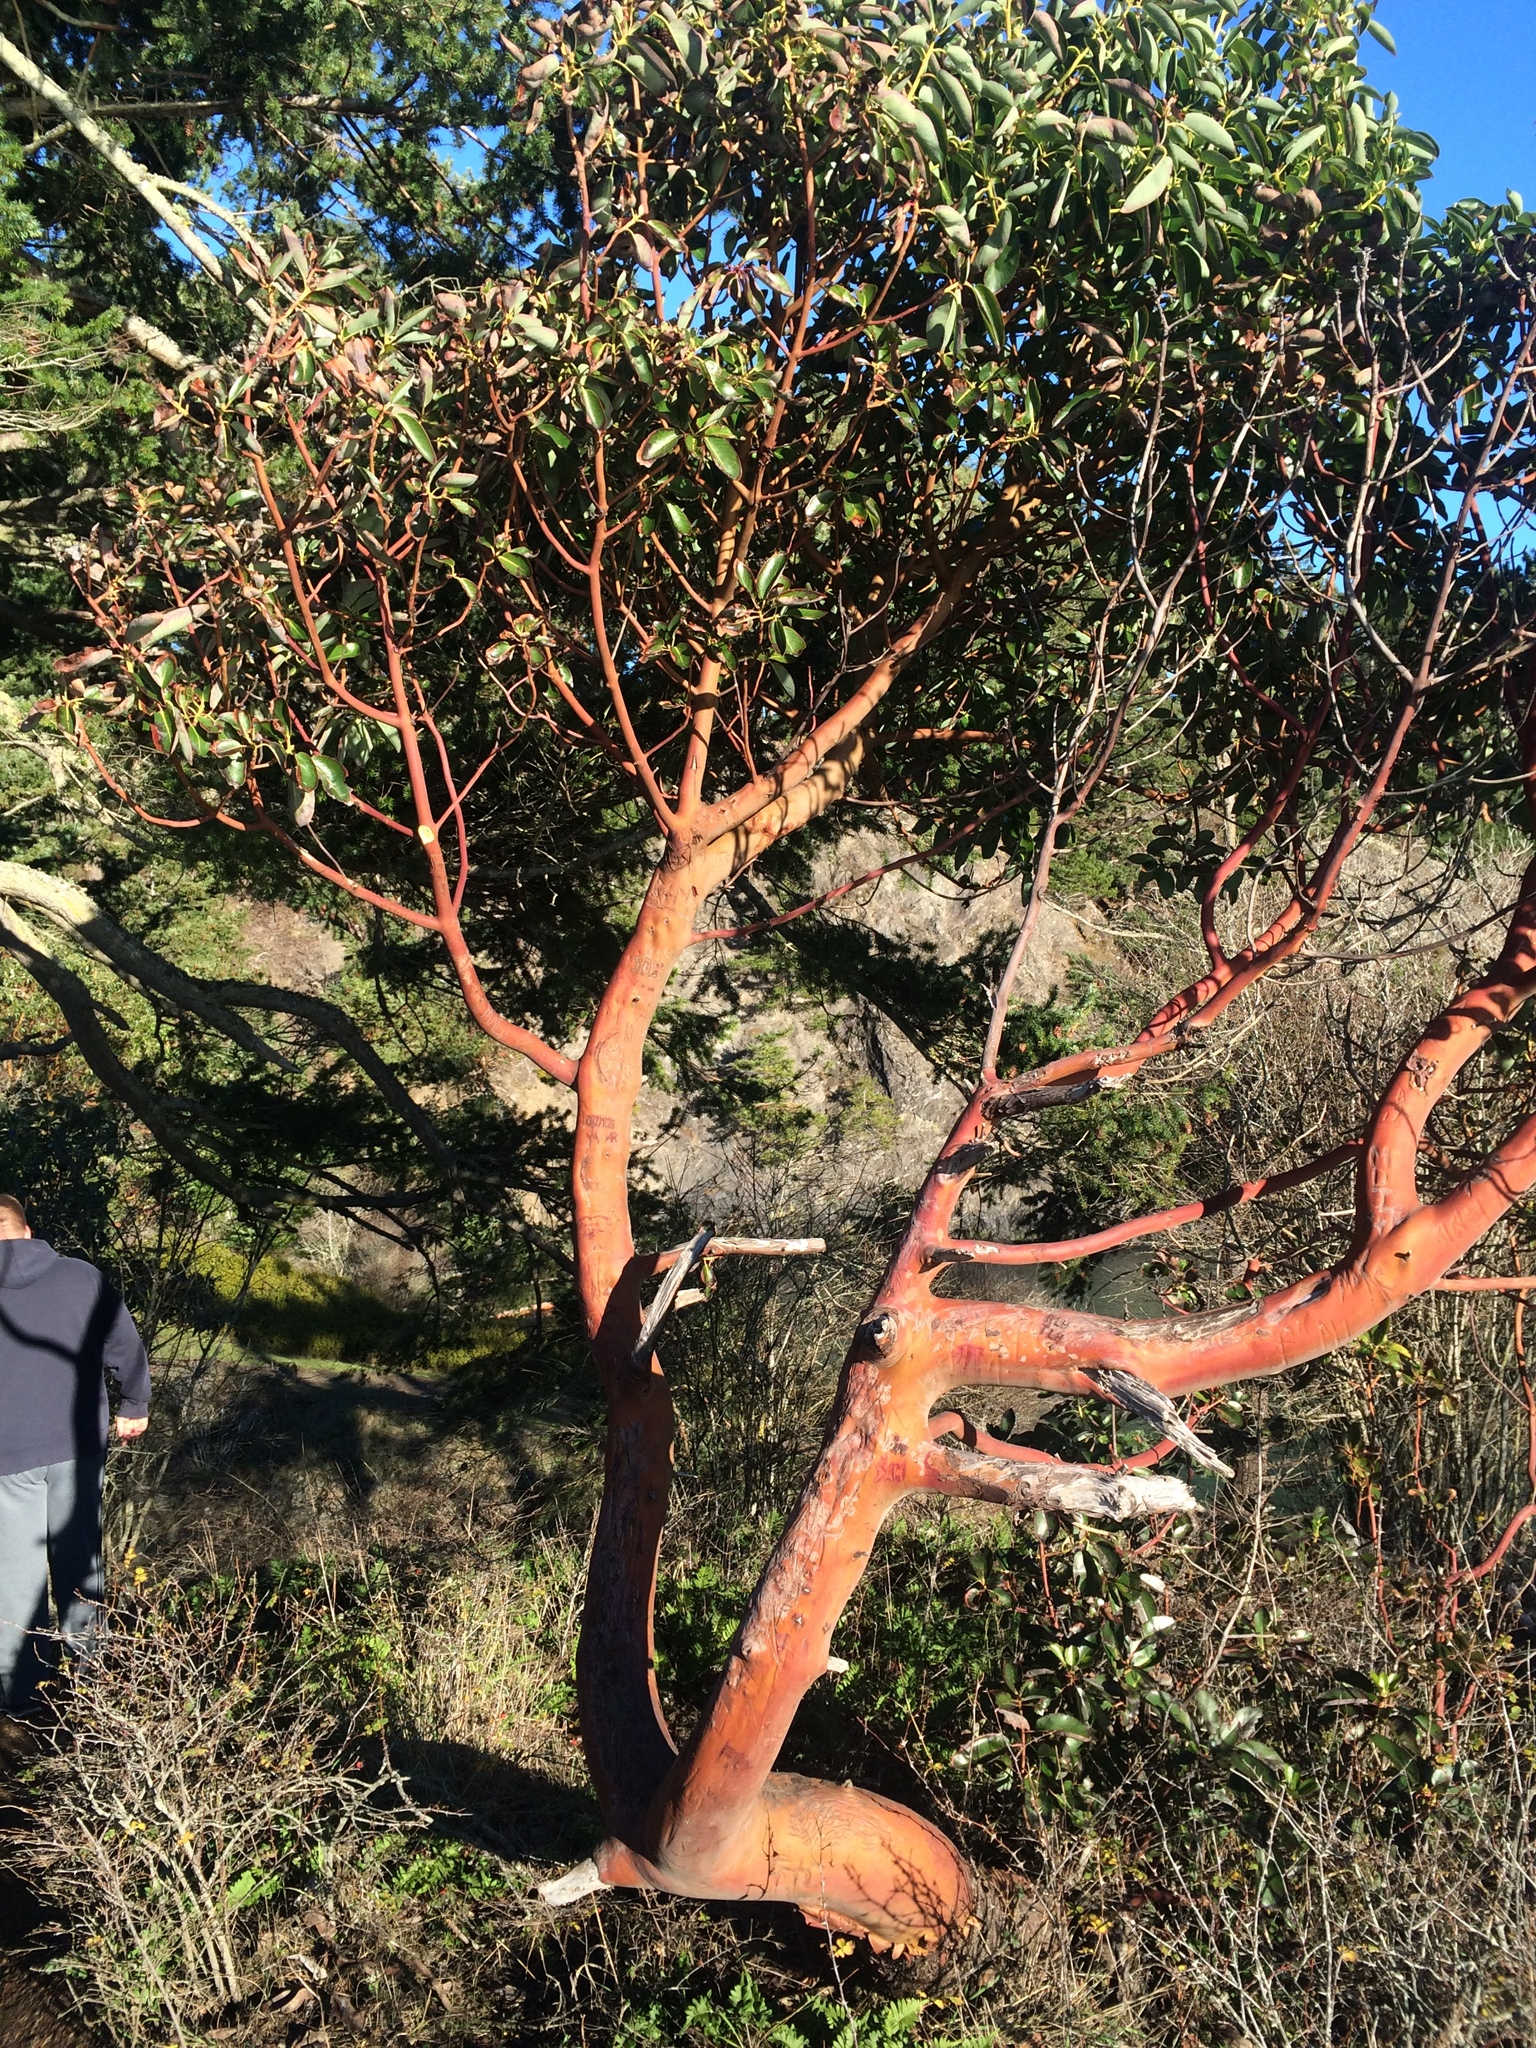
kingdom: Plantae
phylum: Tracheophyta
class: Magnoliopsida
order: Ericales
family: Ericaceae
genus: Arbutus
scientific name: Arbutus menziesii
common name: Pacific madrone
